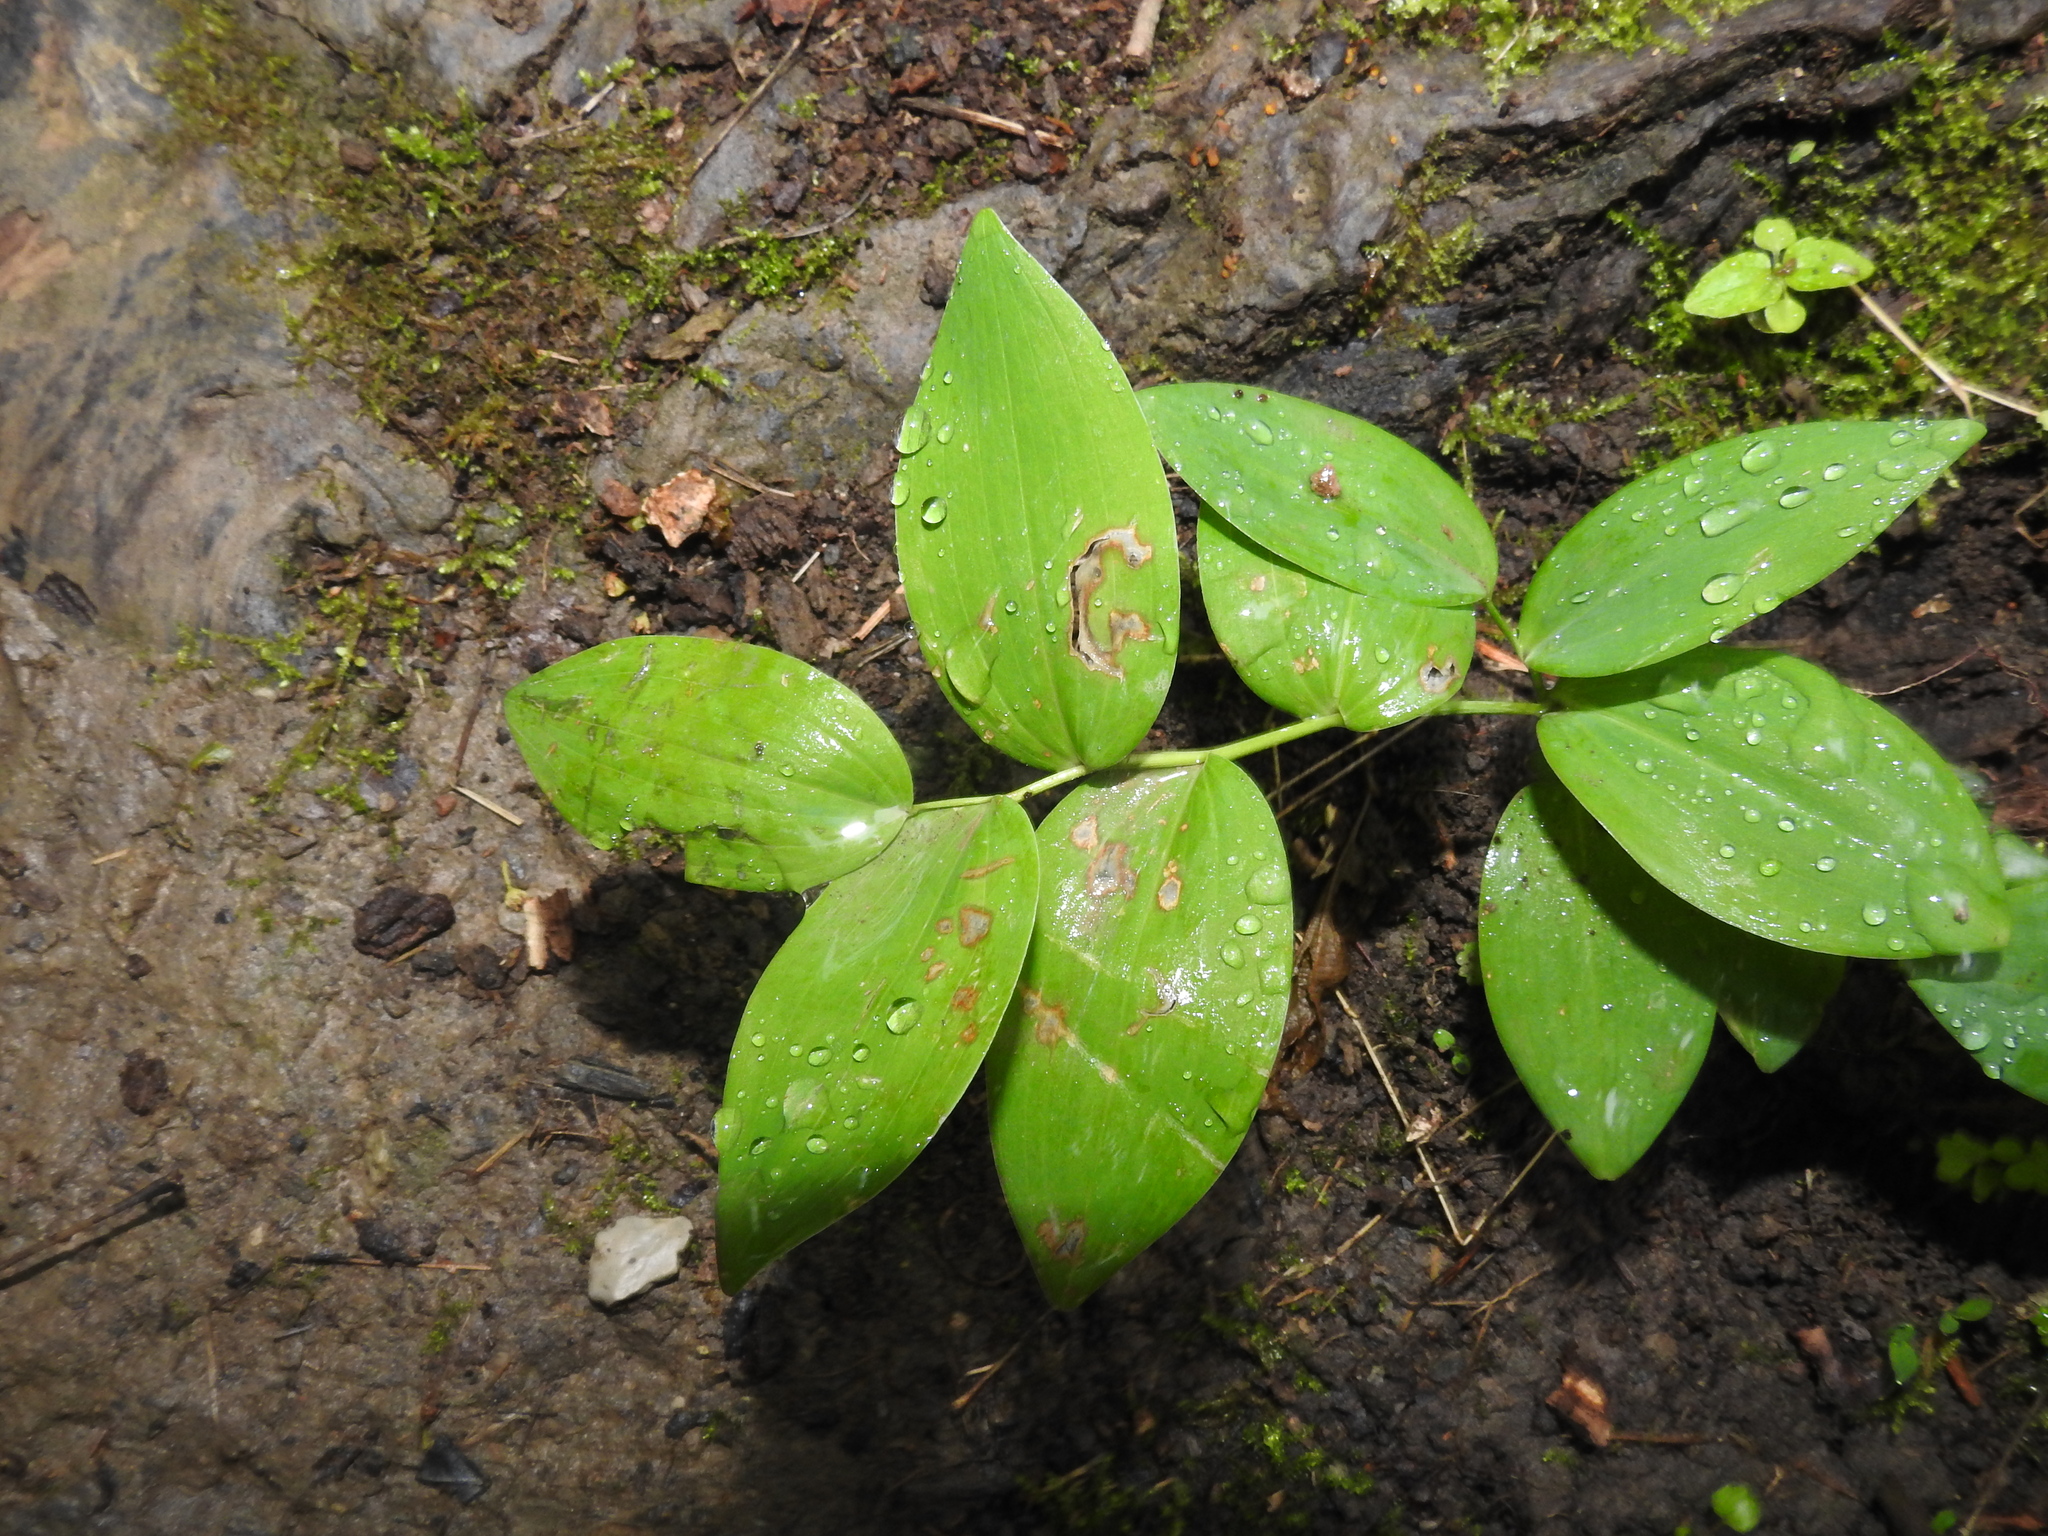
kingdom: Plantae
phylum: Tracheophyta
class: Liliopsida
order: Asparagales
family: Asparagaceae
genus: Polygonatum
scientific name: Polygonatum biflorum
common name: American solomon's-seal
